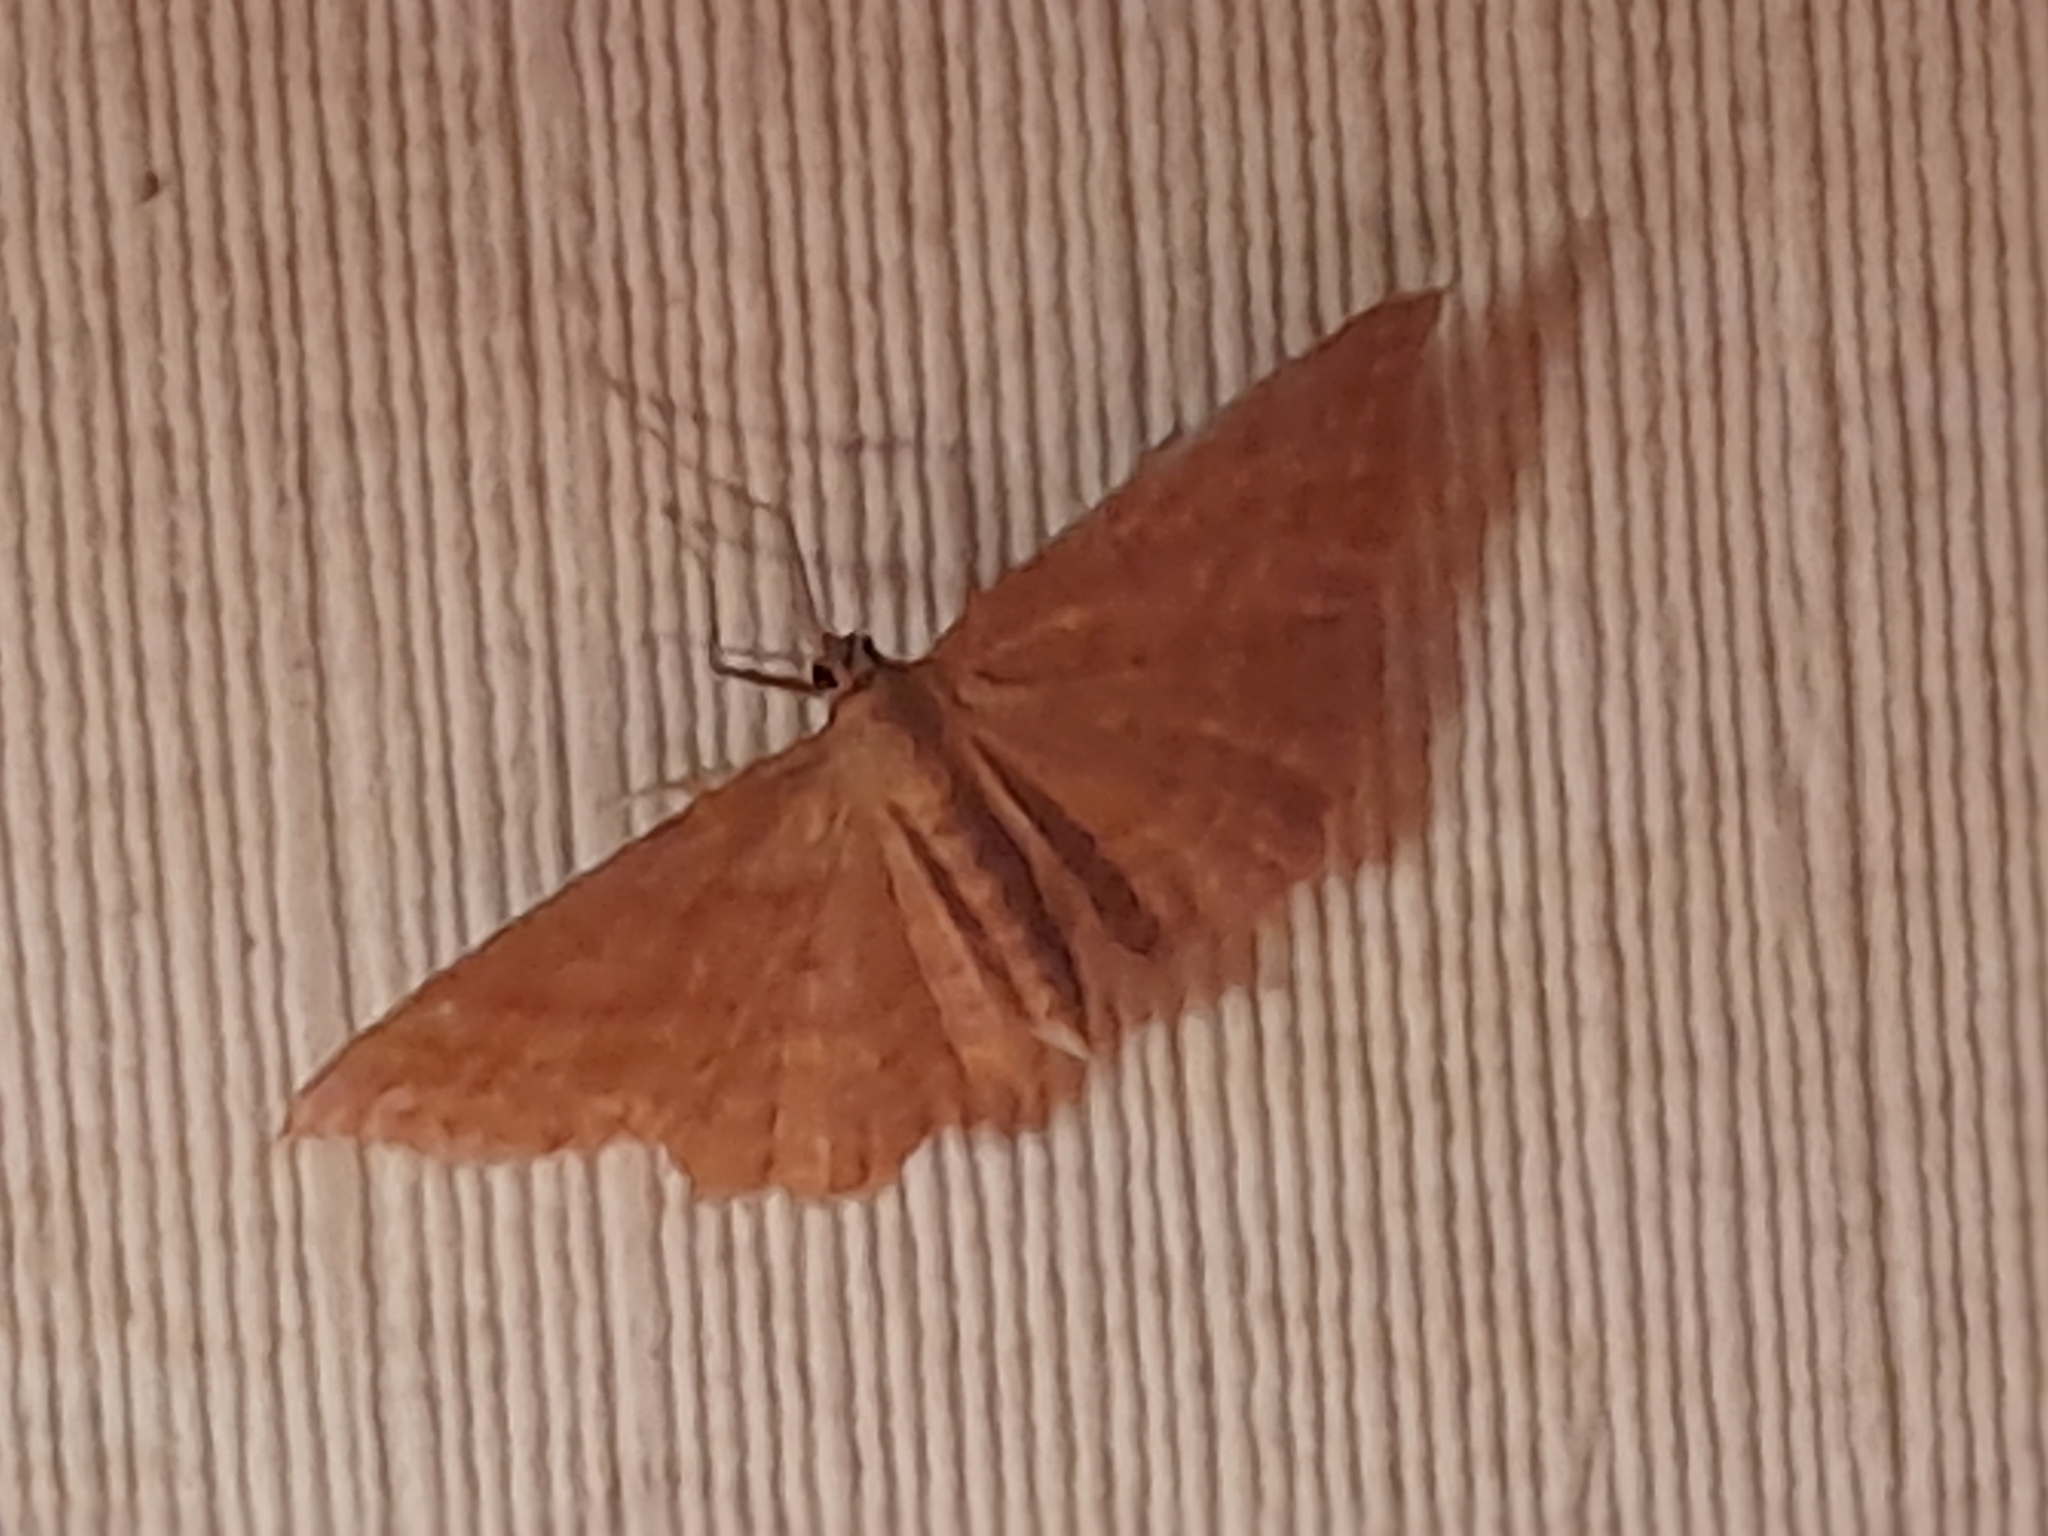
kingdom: Animalia
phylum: Arthropoda
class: Insecta
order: Lepidoptera
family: Geometridae
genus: Idaea
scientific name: Idaea ochrata
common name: Bright wave
